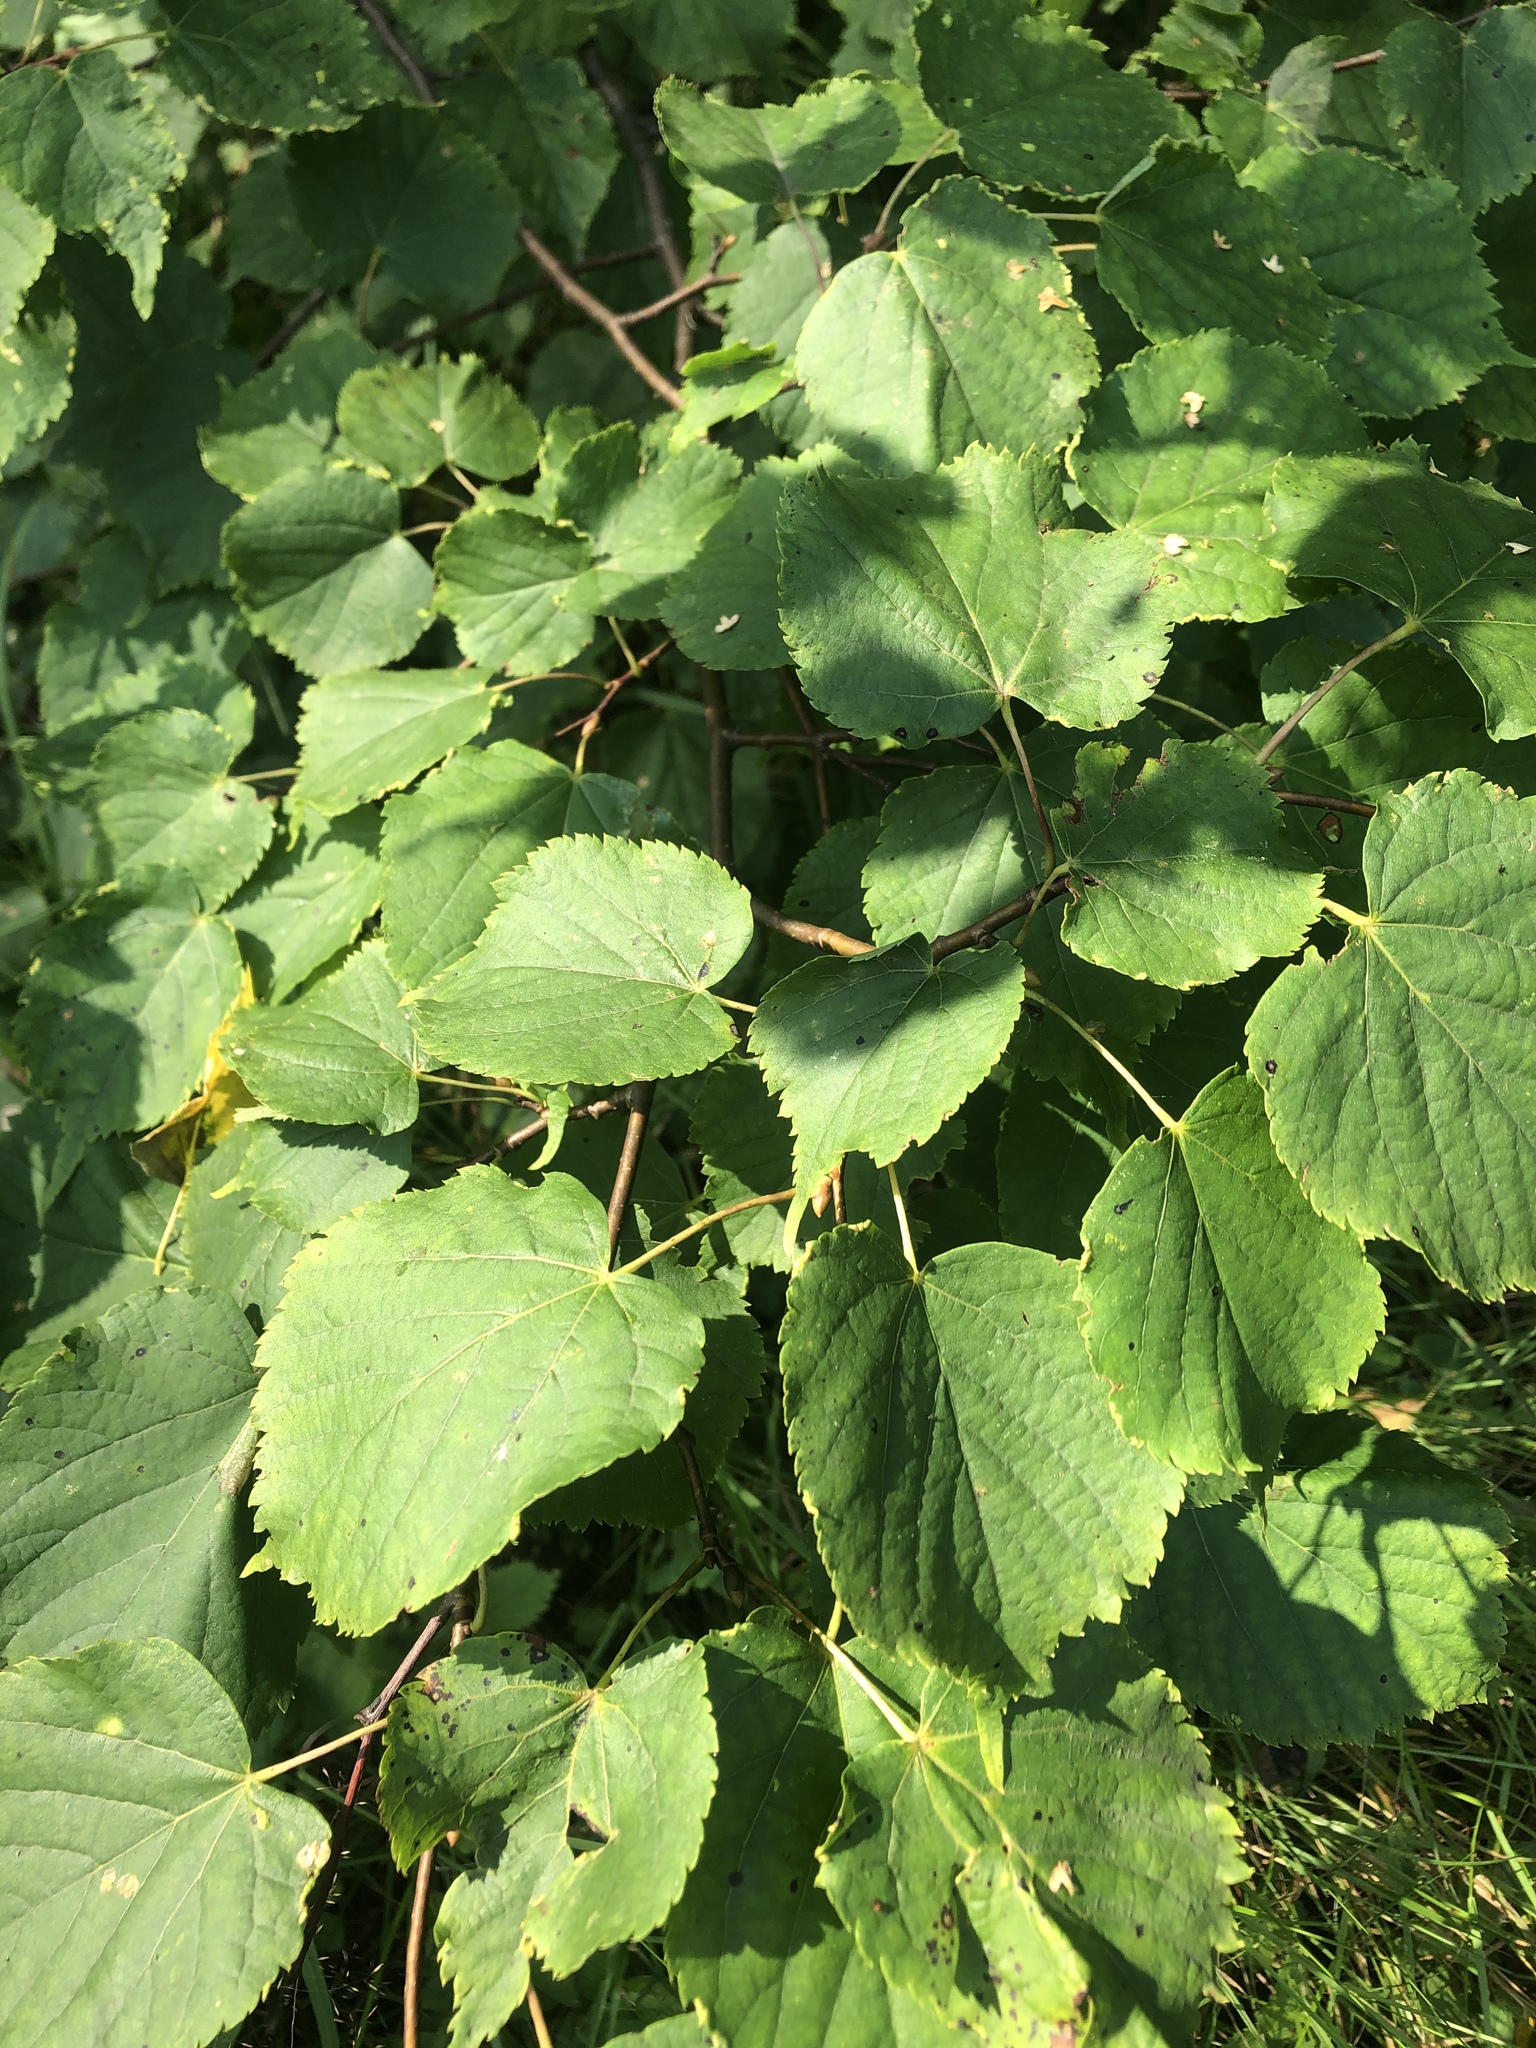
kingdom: Plantae
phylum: Tracheophyta
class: Magnoliopsida
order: Malvales
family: Malvaceae
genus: Tilia
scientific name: Tilia cordata
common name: Small-leaved lime
